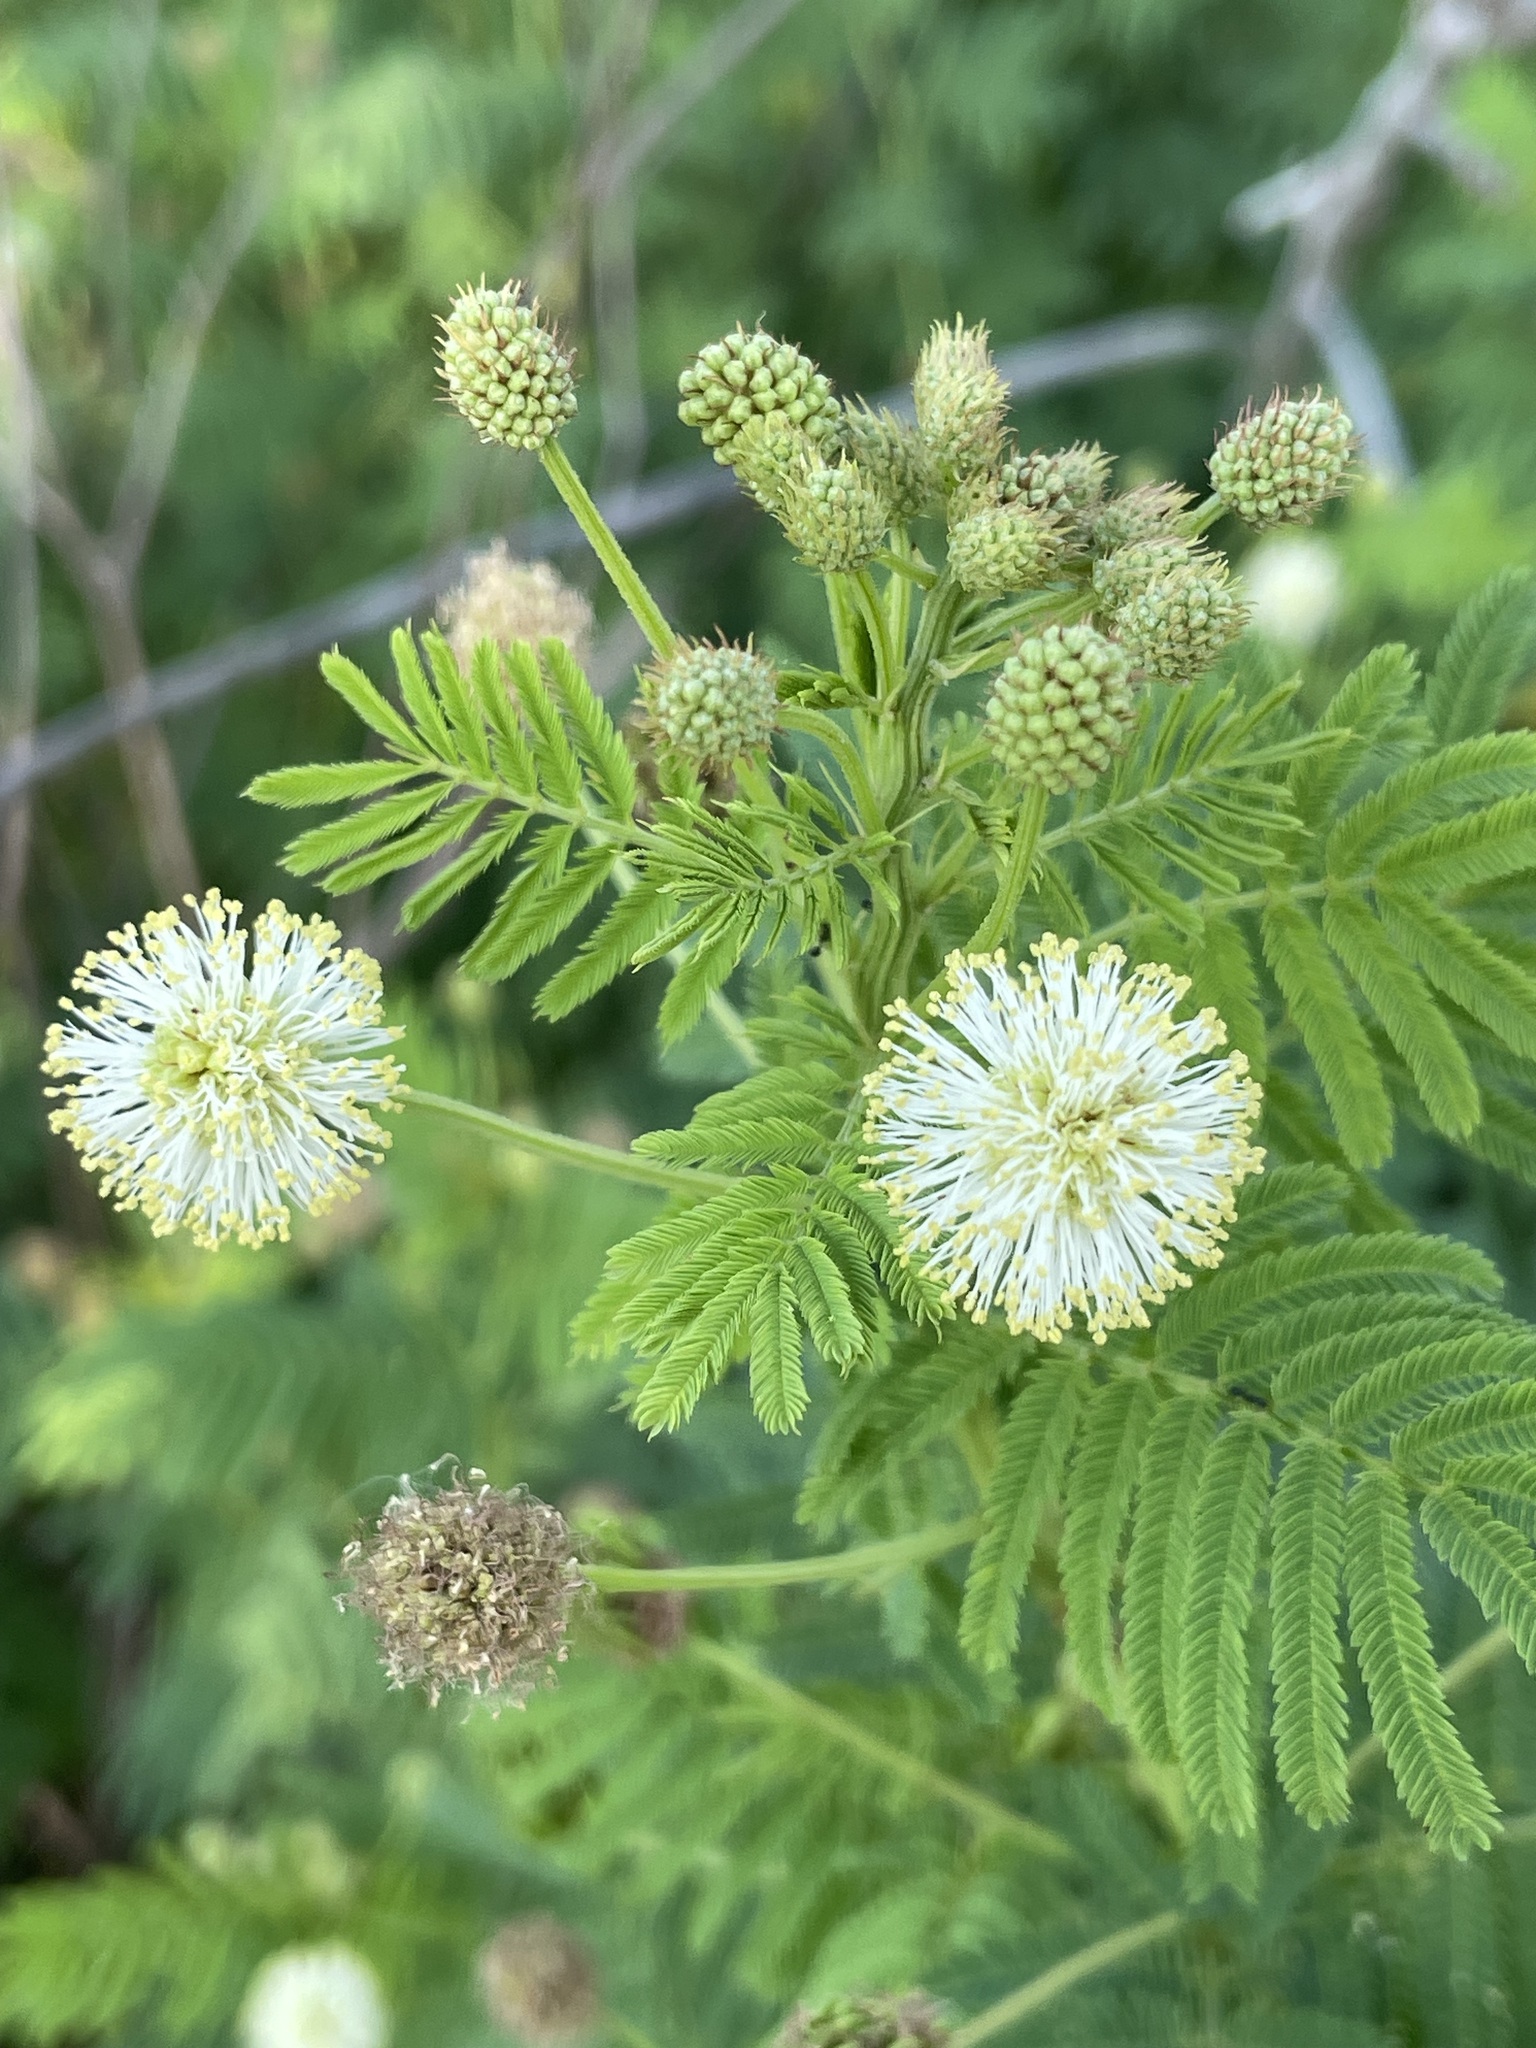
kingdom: Plantae
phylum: Tracheophyta
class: Magnoliopsida
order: Fabales
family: Fabaceae
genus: Desmanthus
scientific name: Desmanthus illinoensis
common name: Illinois bundle-flower
